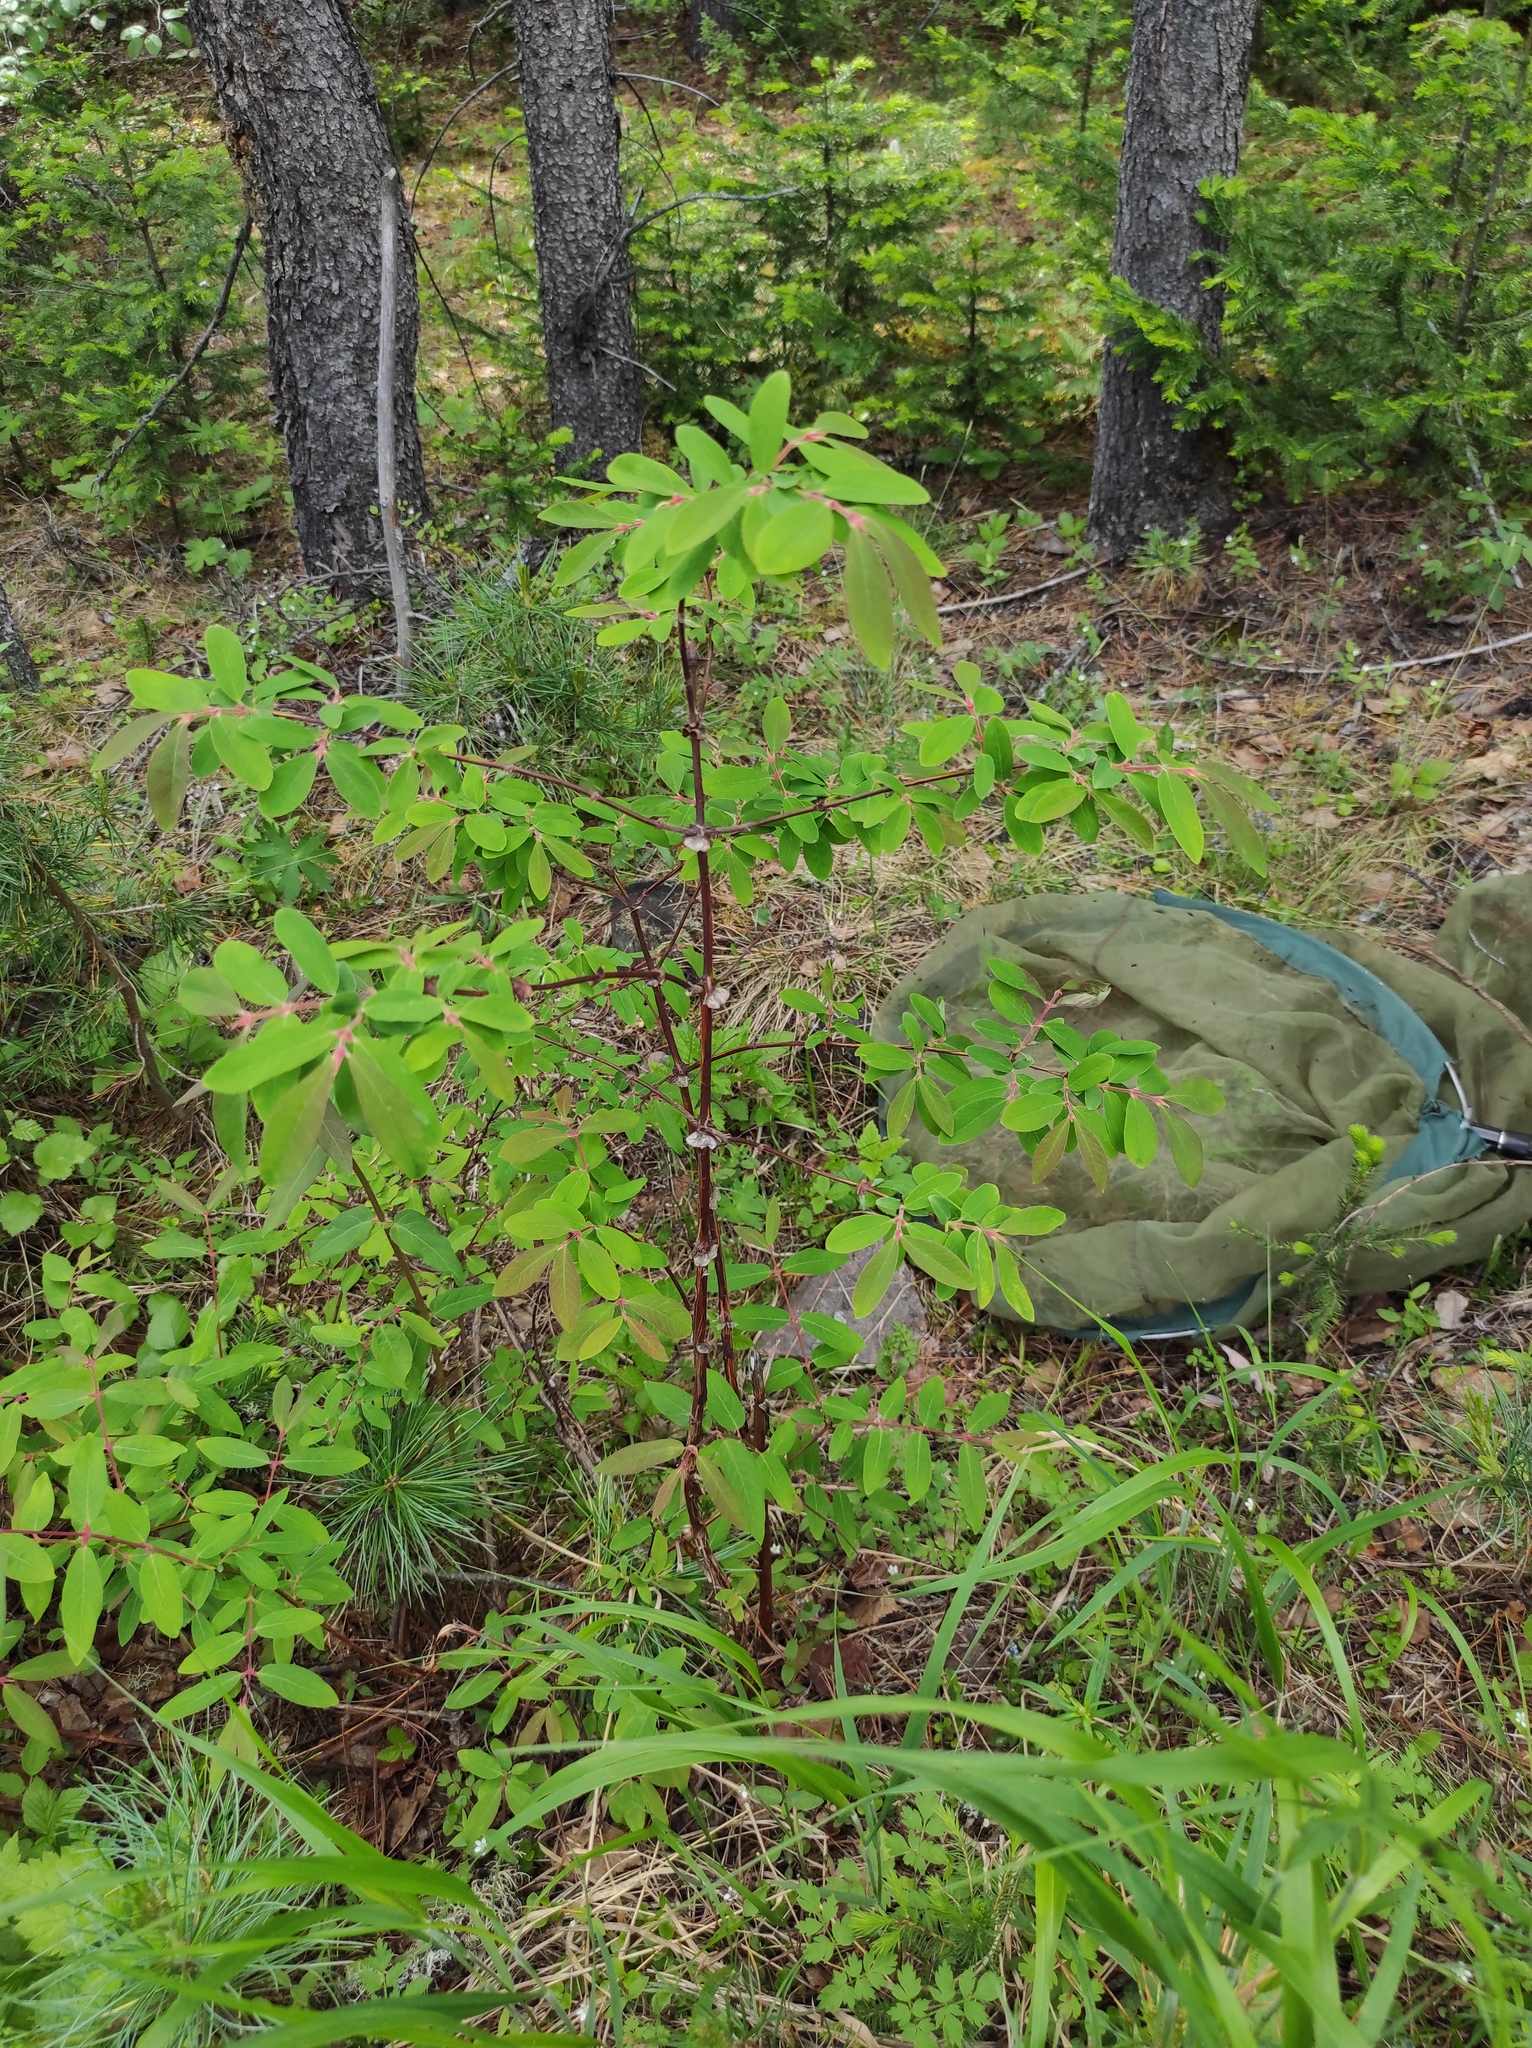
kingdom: Plantae
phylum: Tracheophyta
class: Magnoliopsida
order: Dipsacales
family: Caprifoliaceae
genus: Lonicera
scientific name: Lonicera caerulea
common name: Blue honeysuckle
